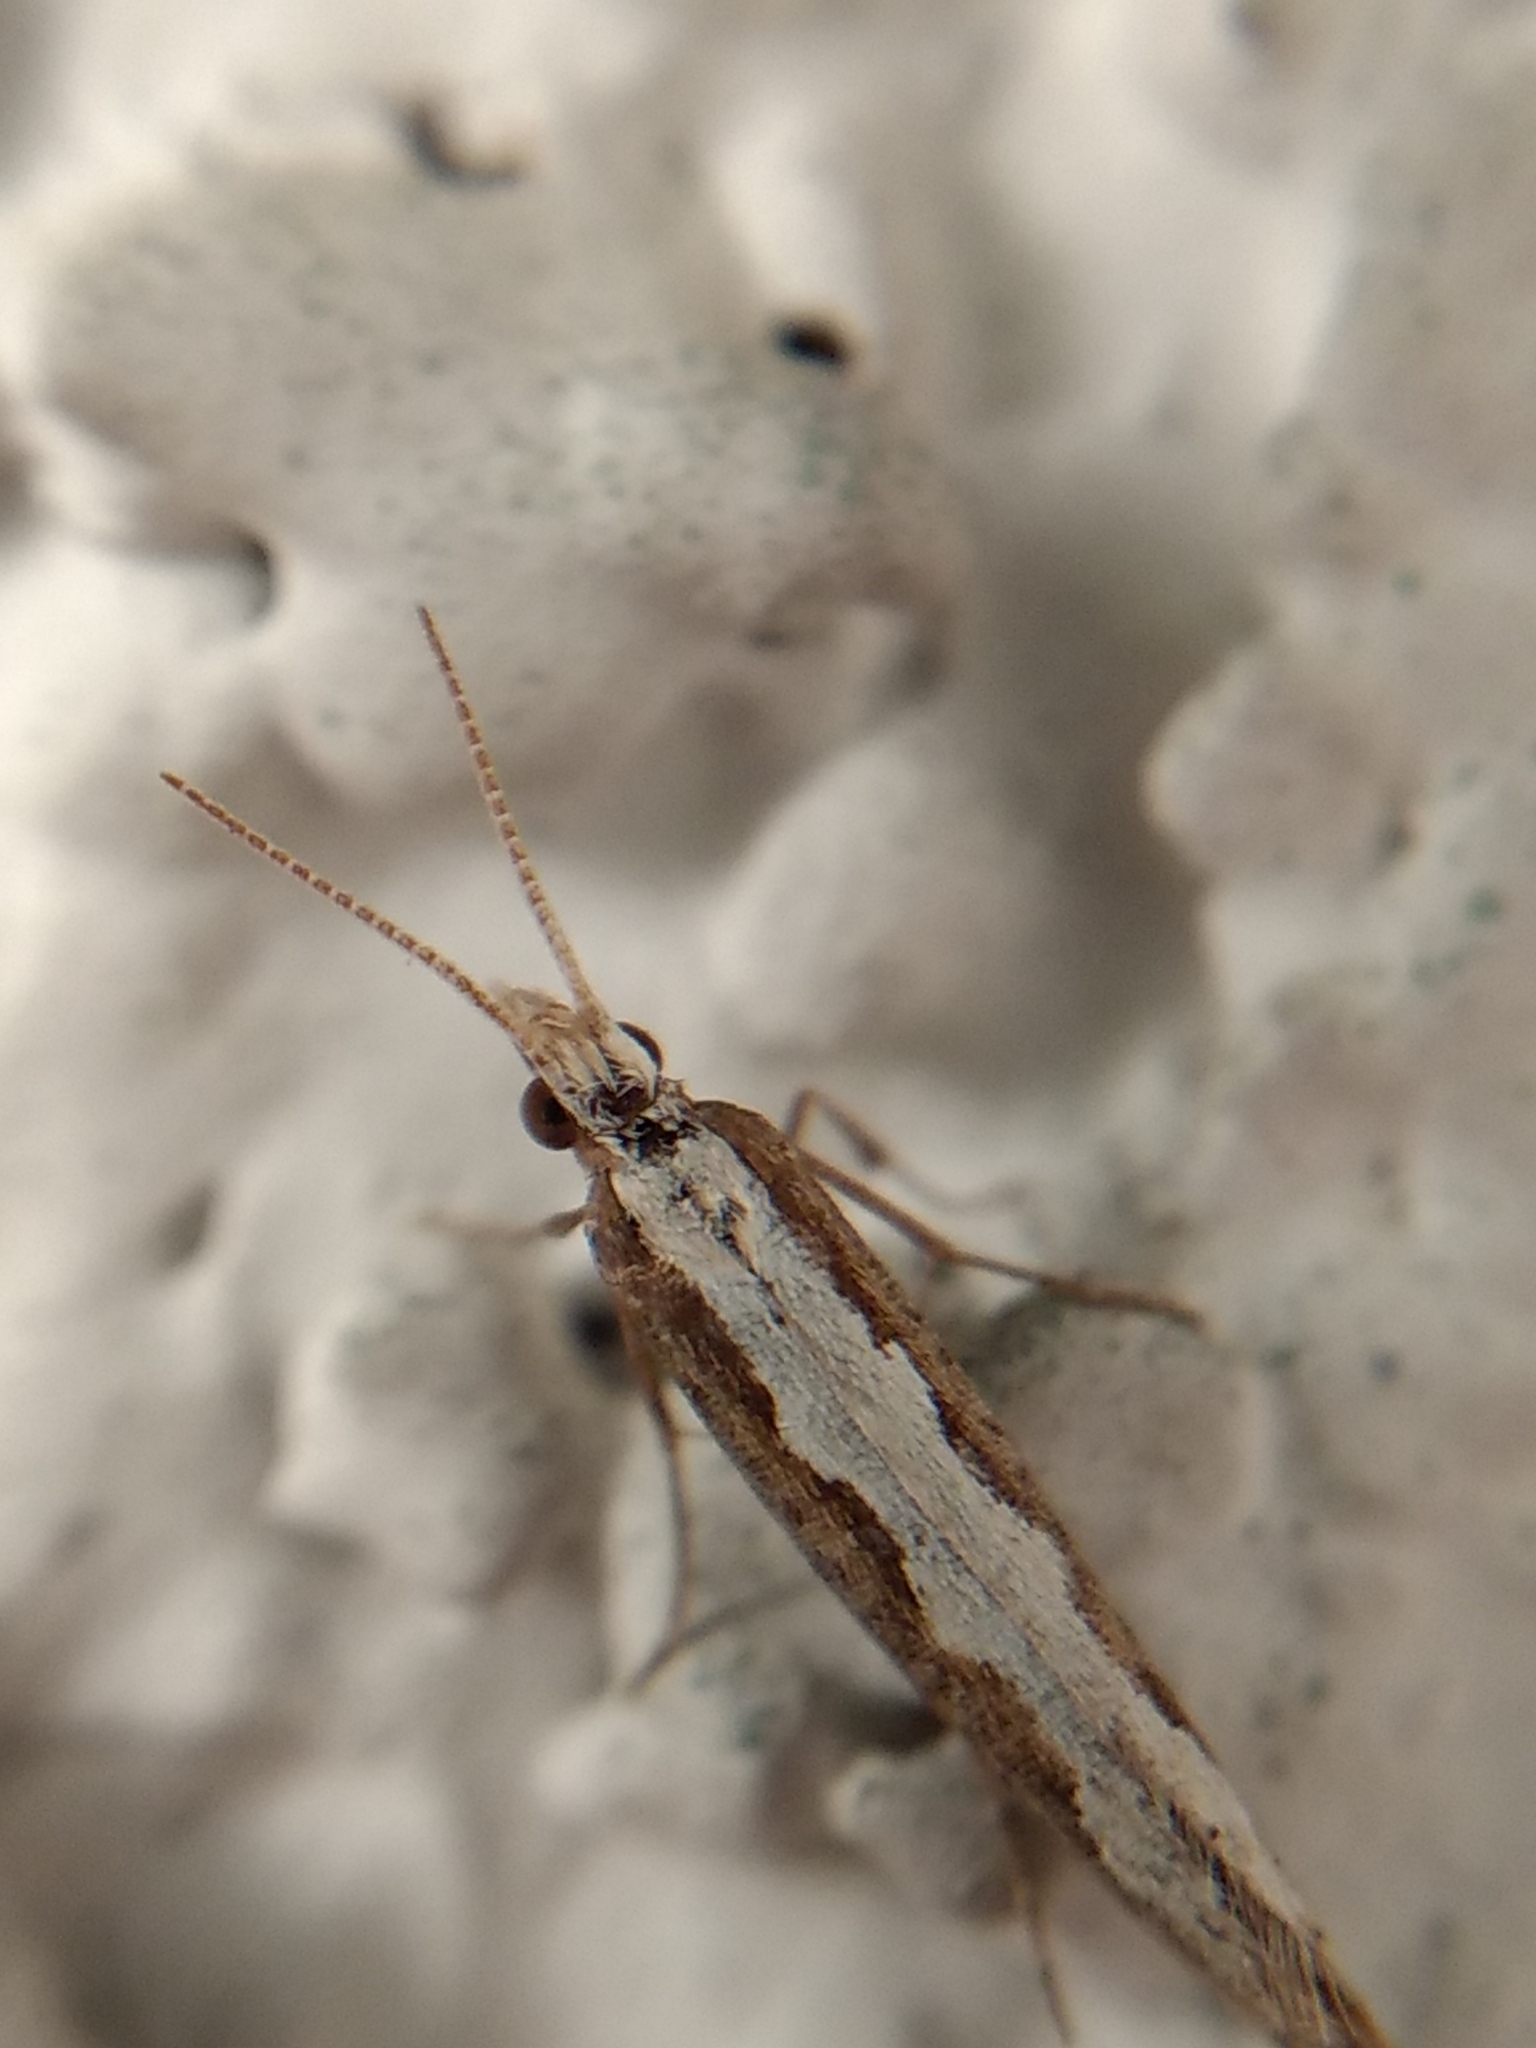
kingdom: Animalia
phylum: Arthropoda
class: Insecta
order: Lepidoptera
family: Plutellidae
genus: Plutella
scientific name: Plutella xylostella
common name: Diamond-back moth
